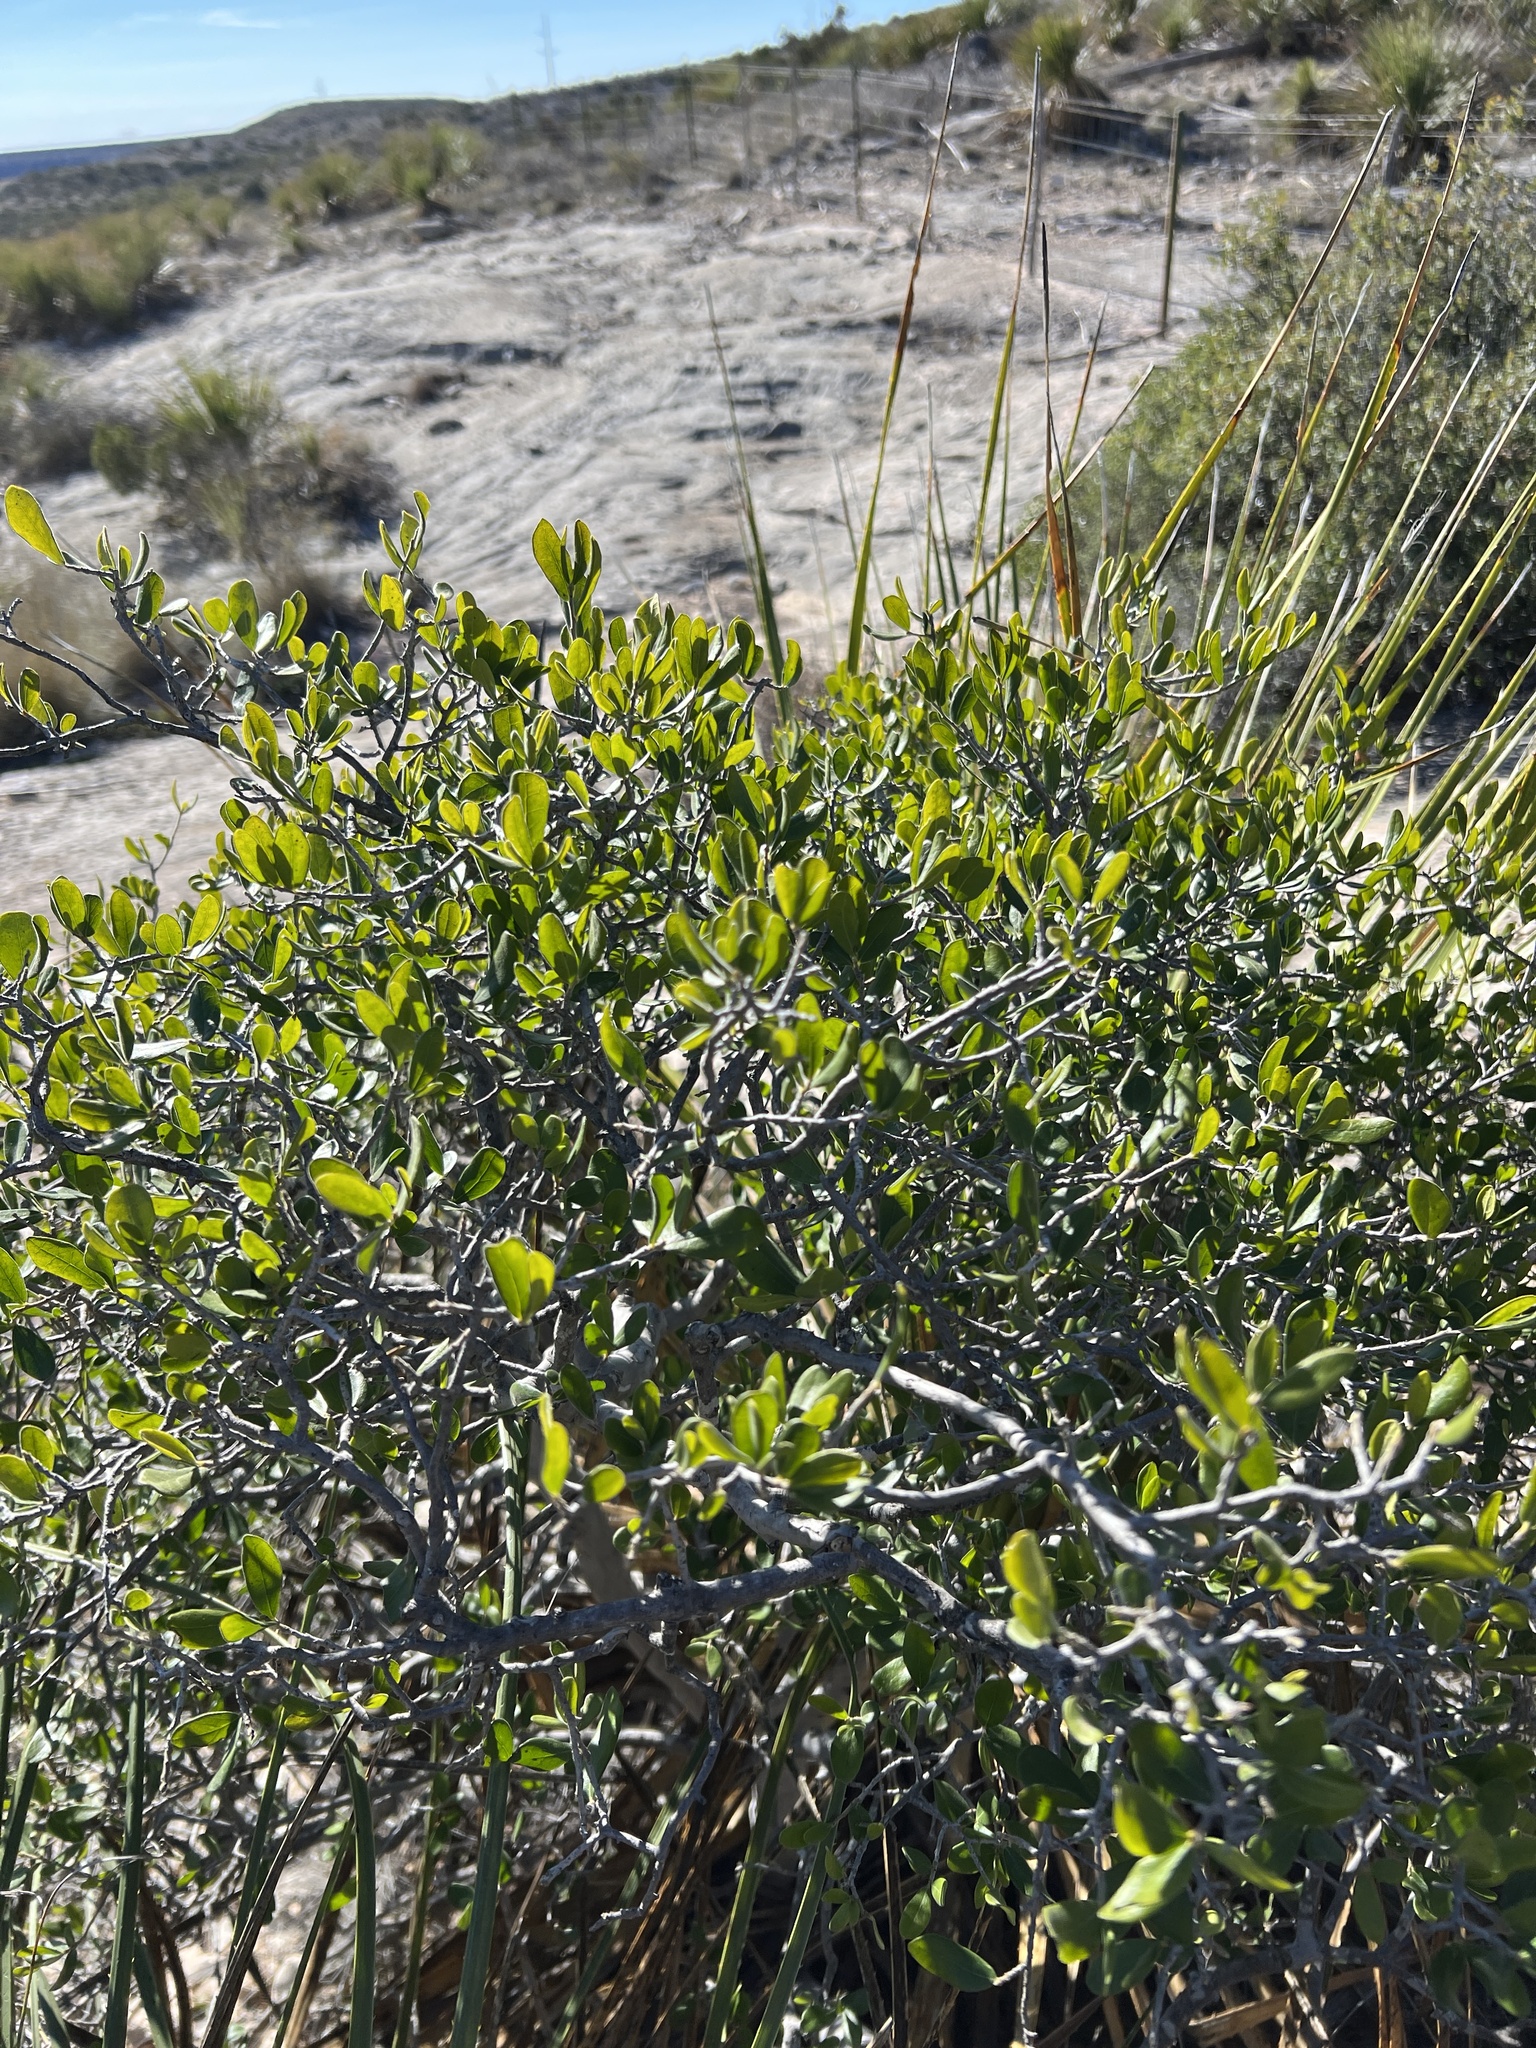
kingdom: Plantae
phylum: Tracheophyta
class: Magnoliopsida
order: Ericales
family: Ebenaceae
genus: Diospyros
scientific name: Diospyros texana
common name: Texas persimmon
